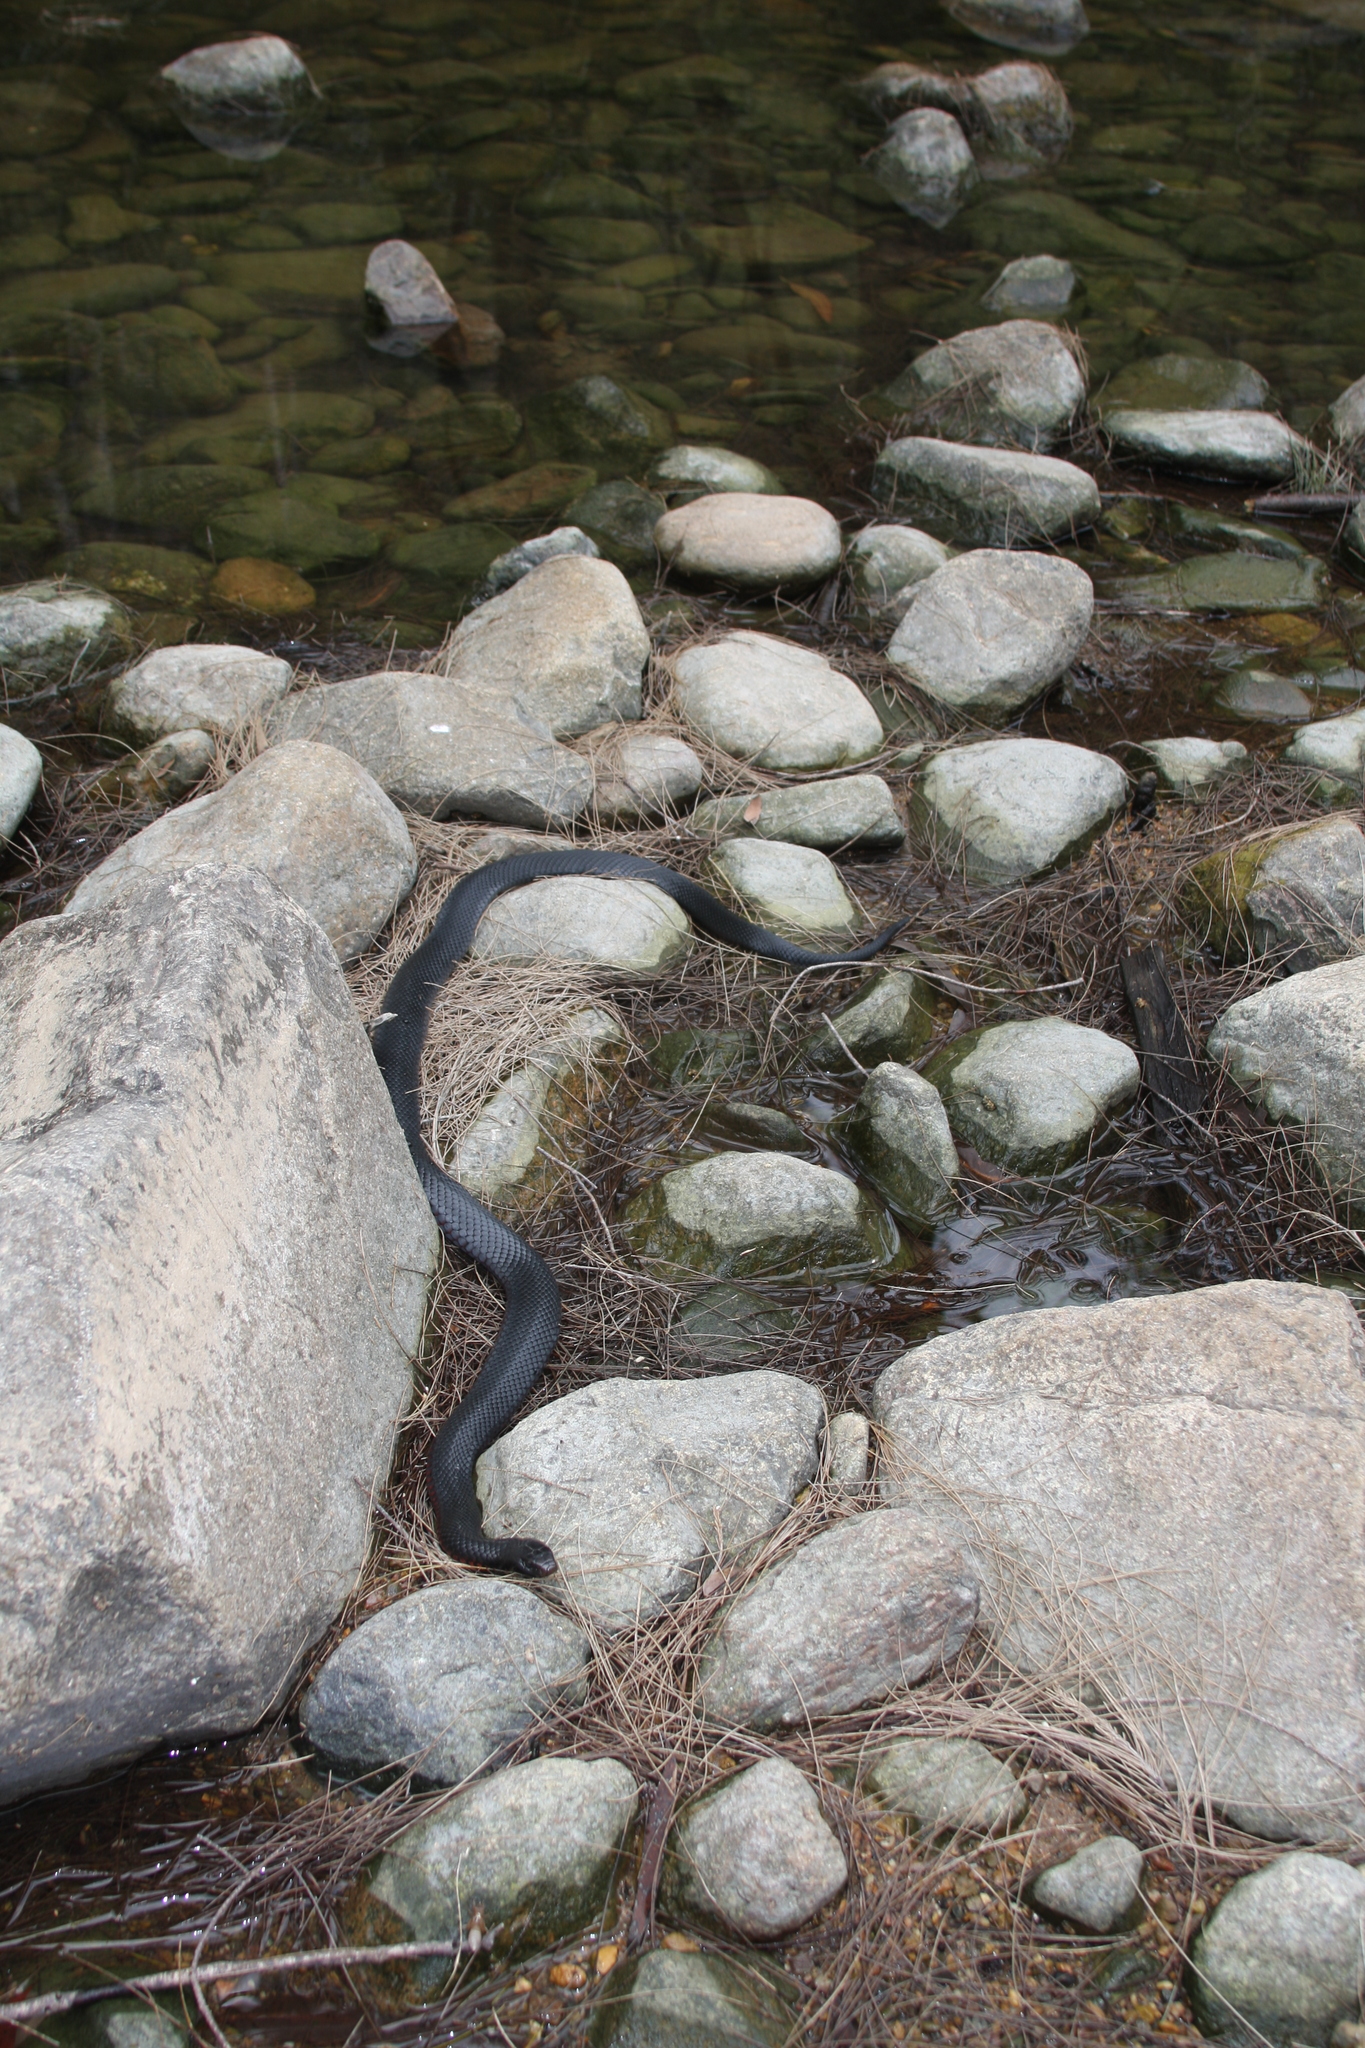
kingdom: Animalia
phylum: Chordata
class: Squamata
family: Elapidae
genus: Pseudechis
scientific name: Pseudechis porphyriacus
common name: Australian black snake
